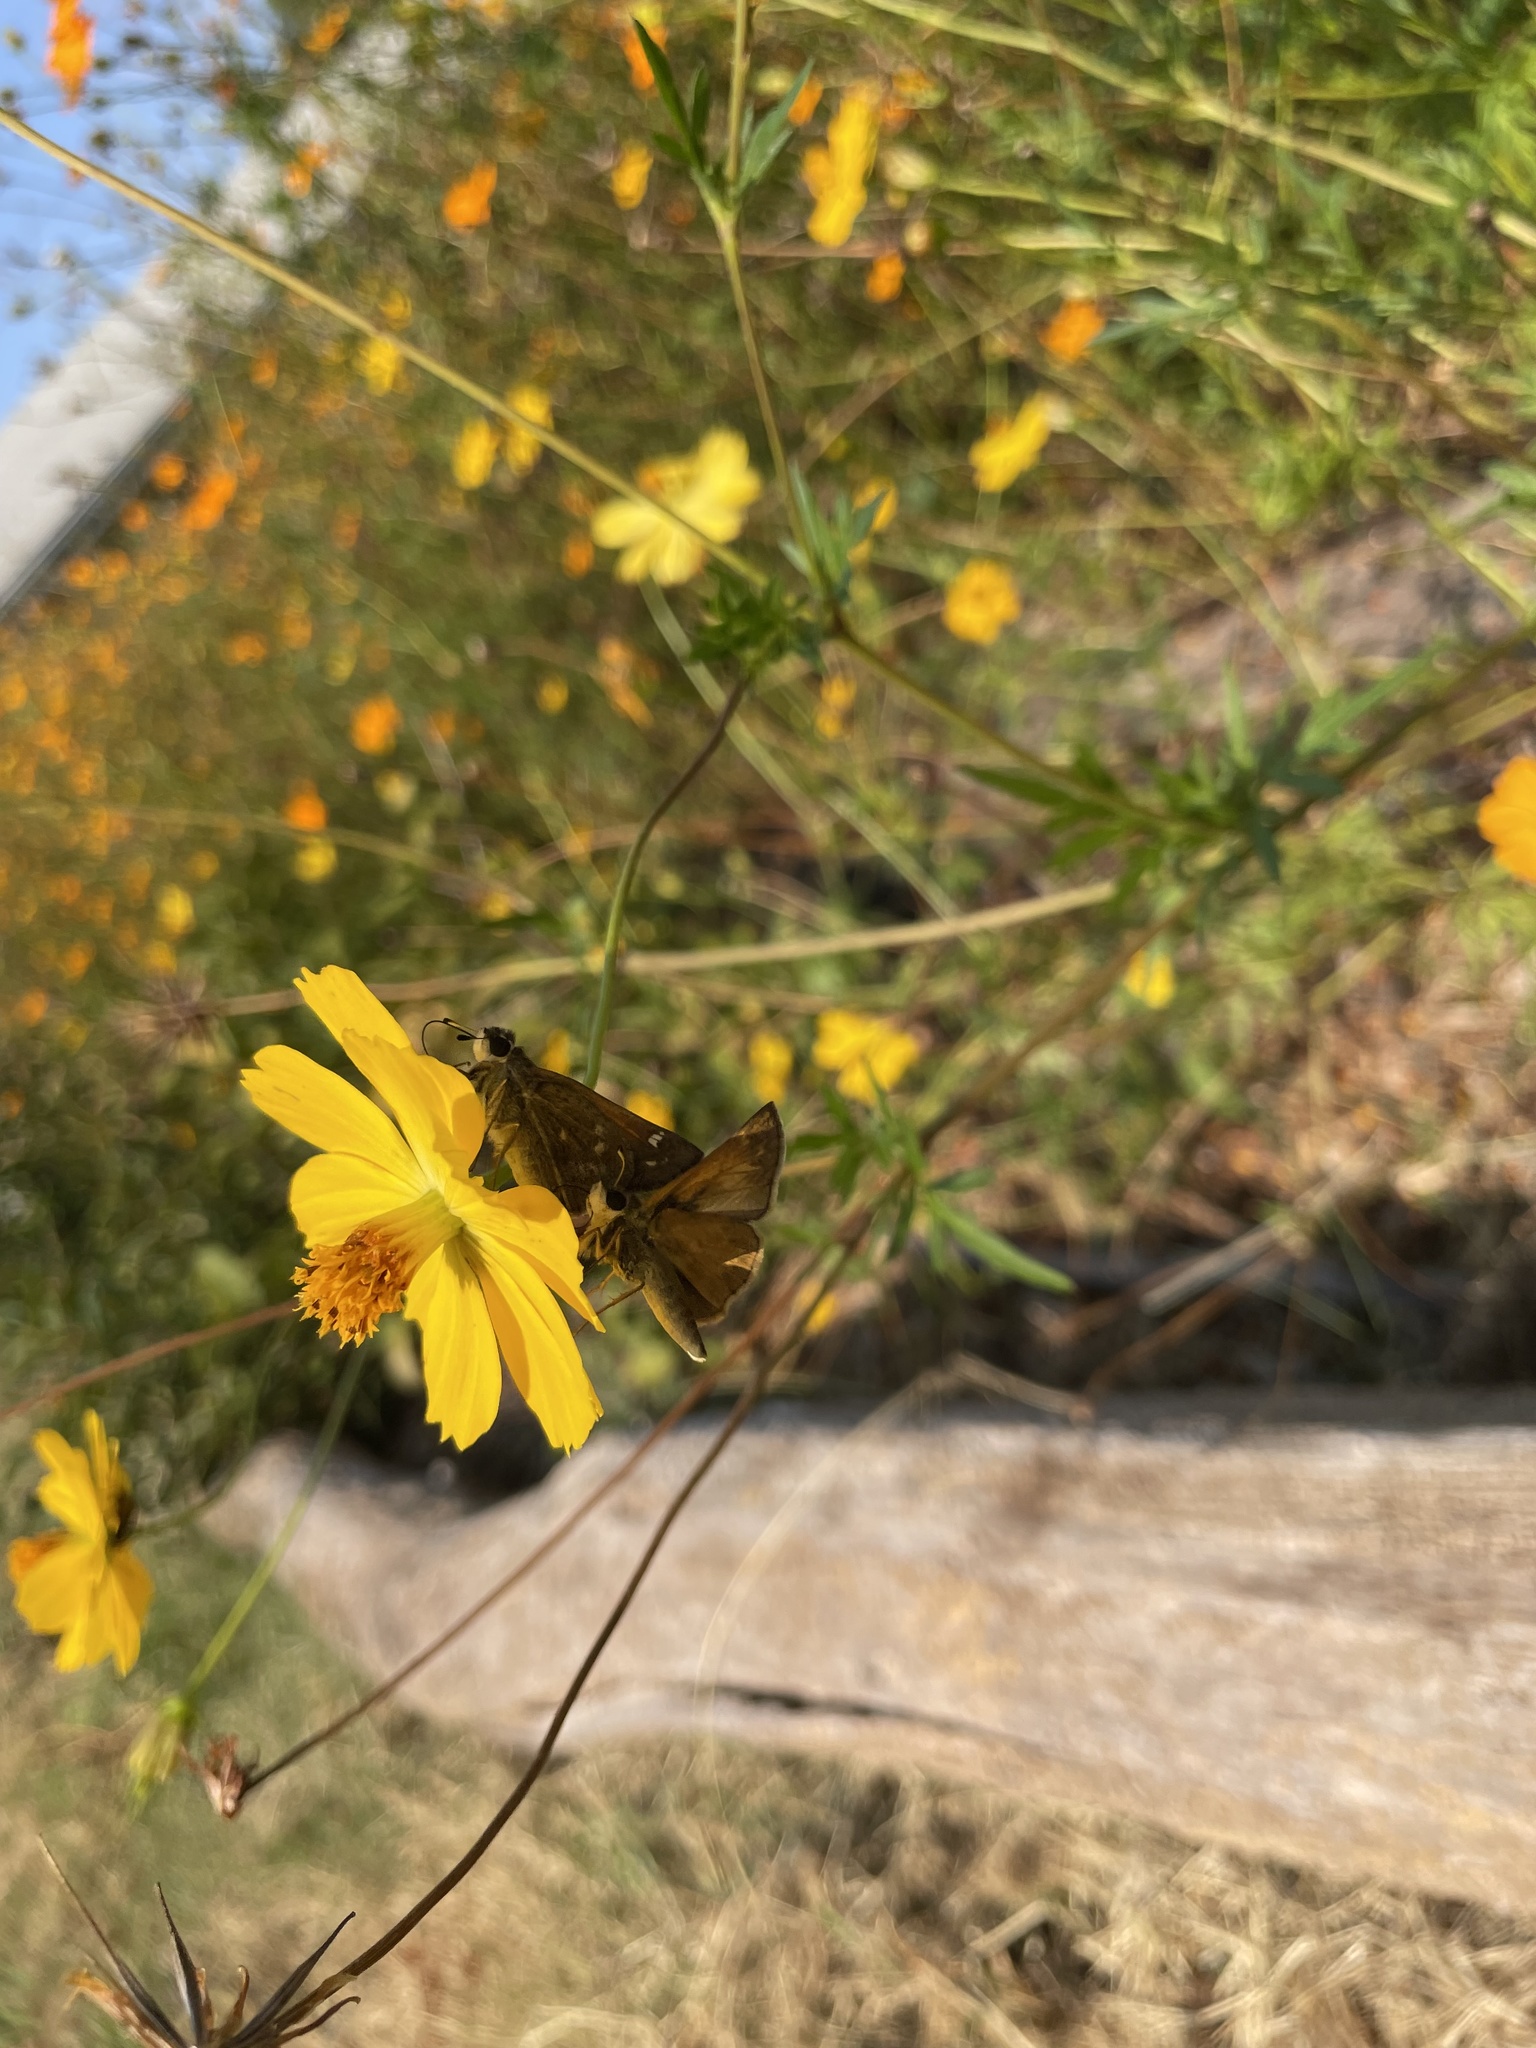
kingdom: Animalia
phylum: Arthropoda
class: Insecta
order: Lepidoptera
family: Hesperiidae
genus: Atalopedes
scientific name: Atalopedes
